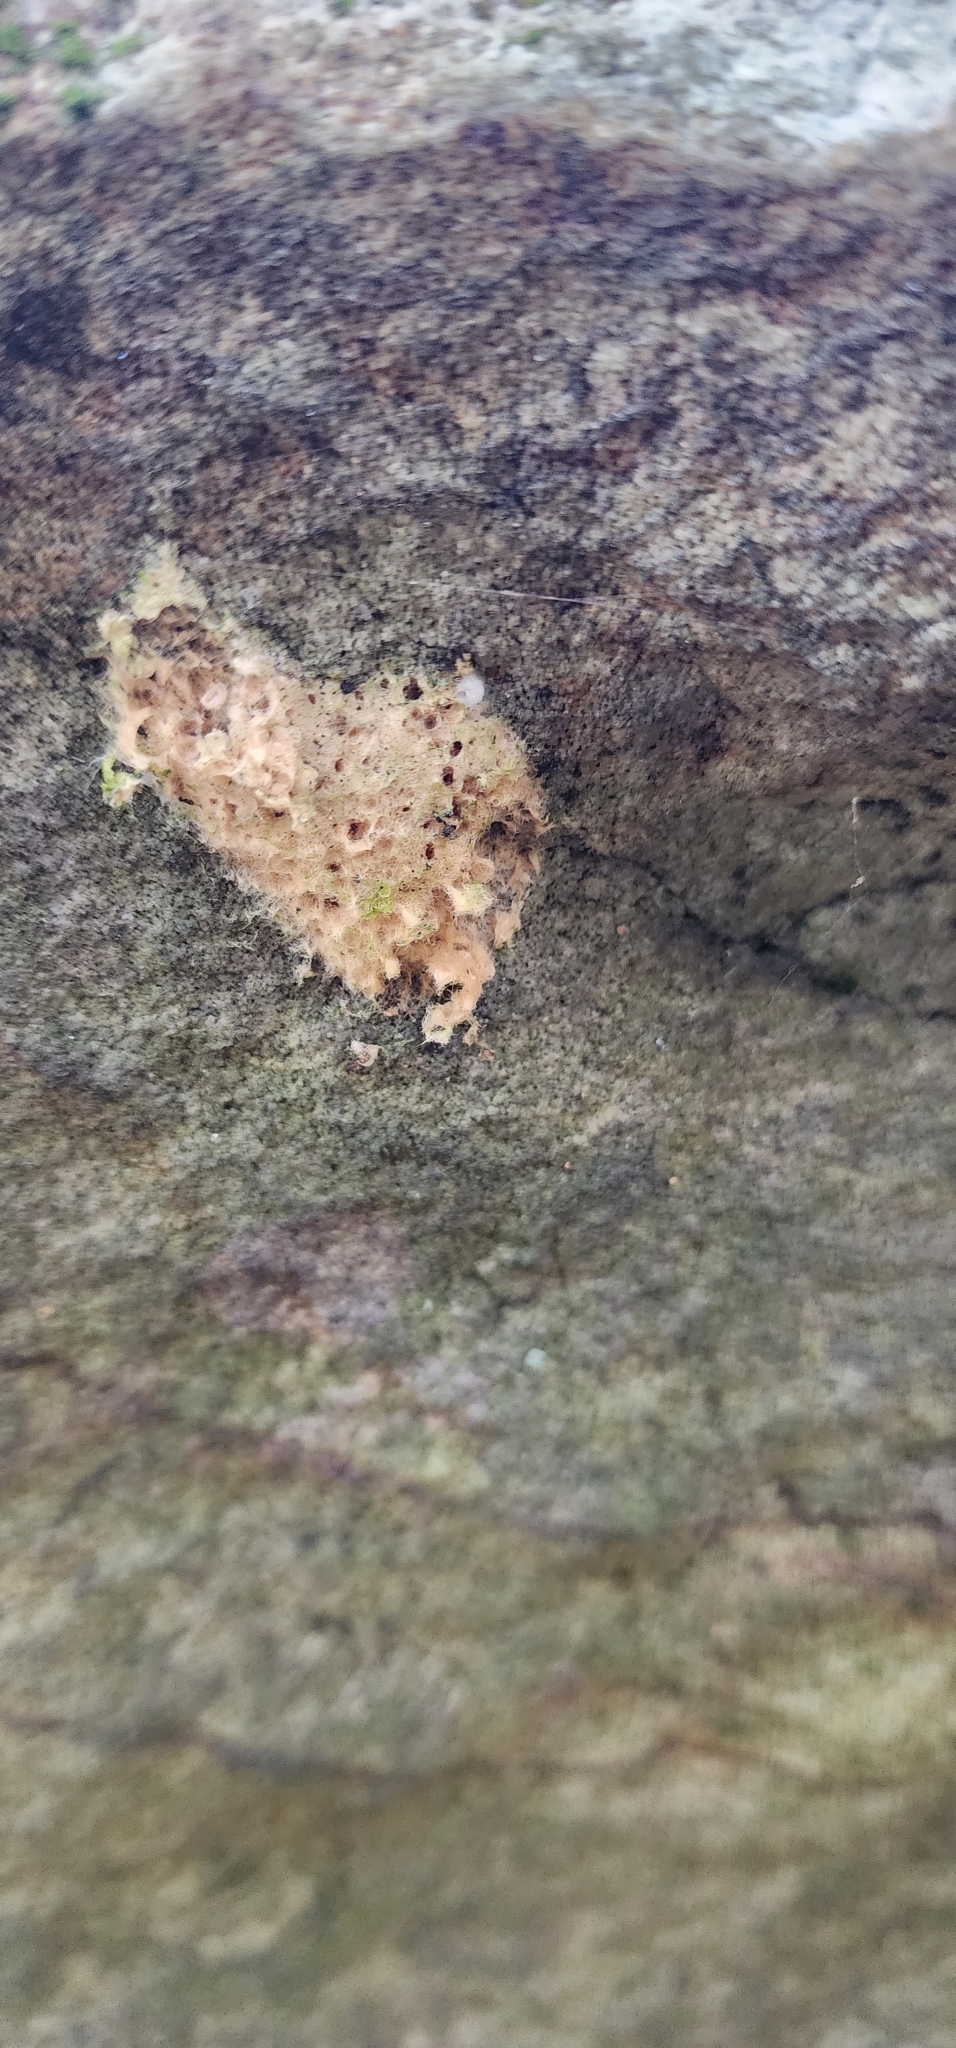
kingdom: Animalia
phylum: Arthropoda
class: Insecta
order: Lepidoptera
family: Erebidae
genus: Lymantria
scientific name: Lymantria dispar
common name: Gypsy moth
